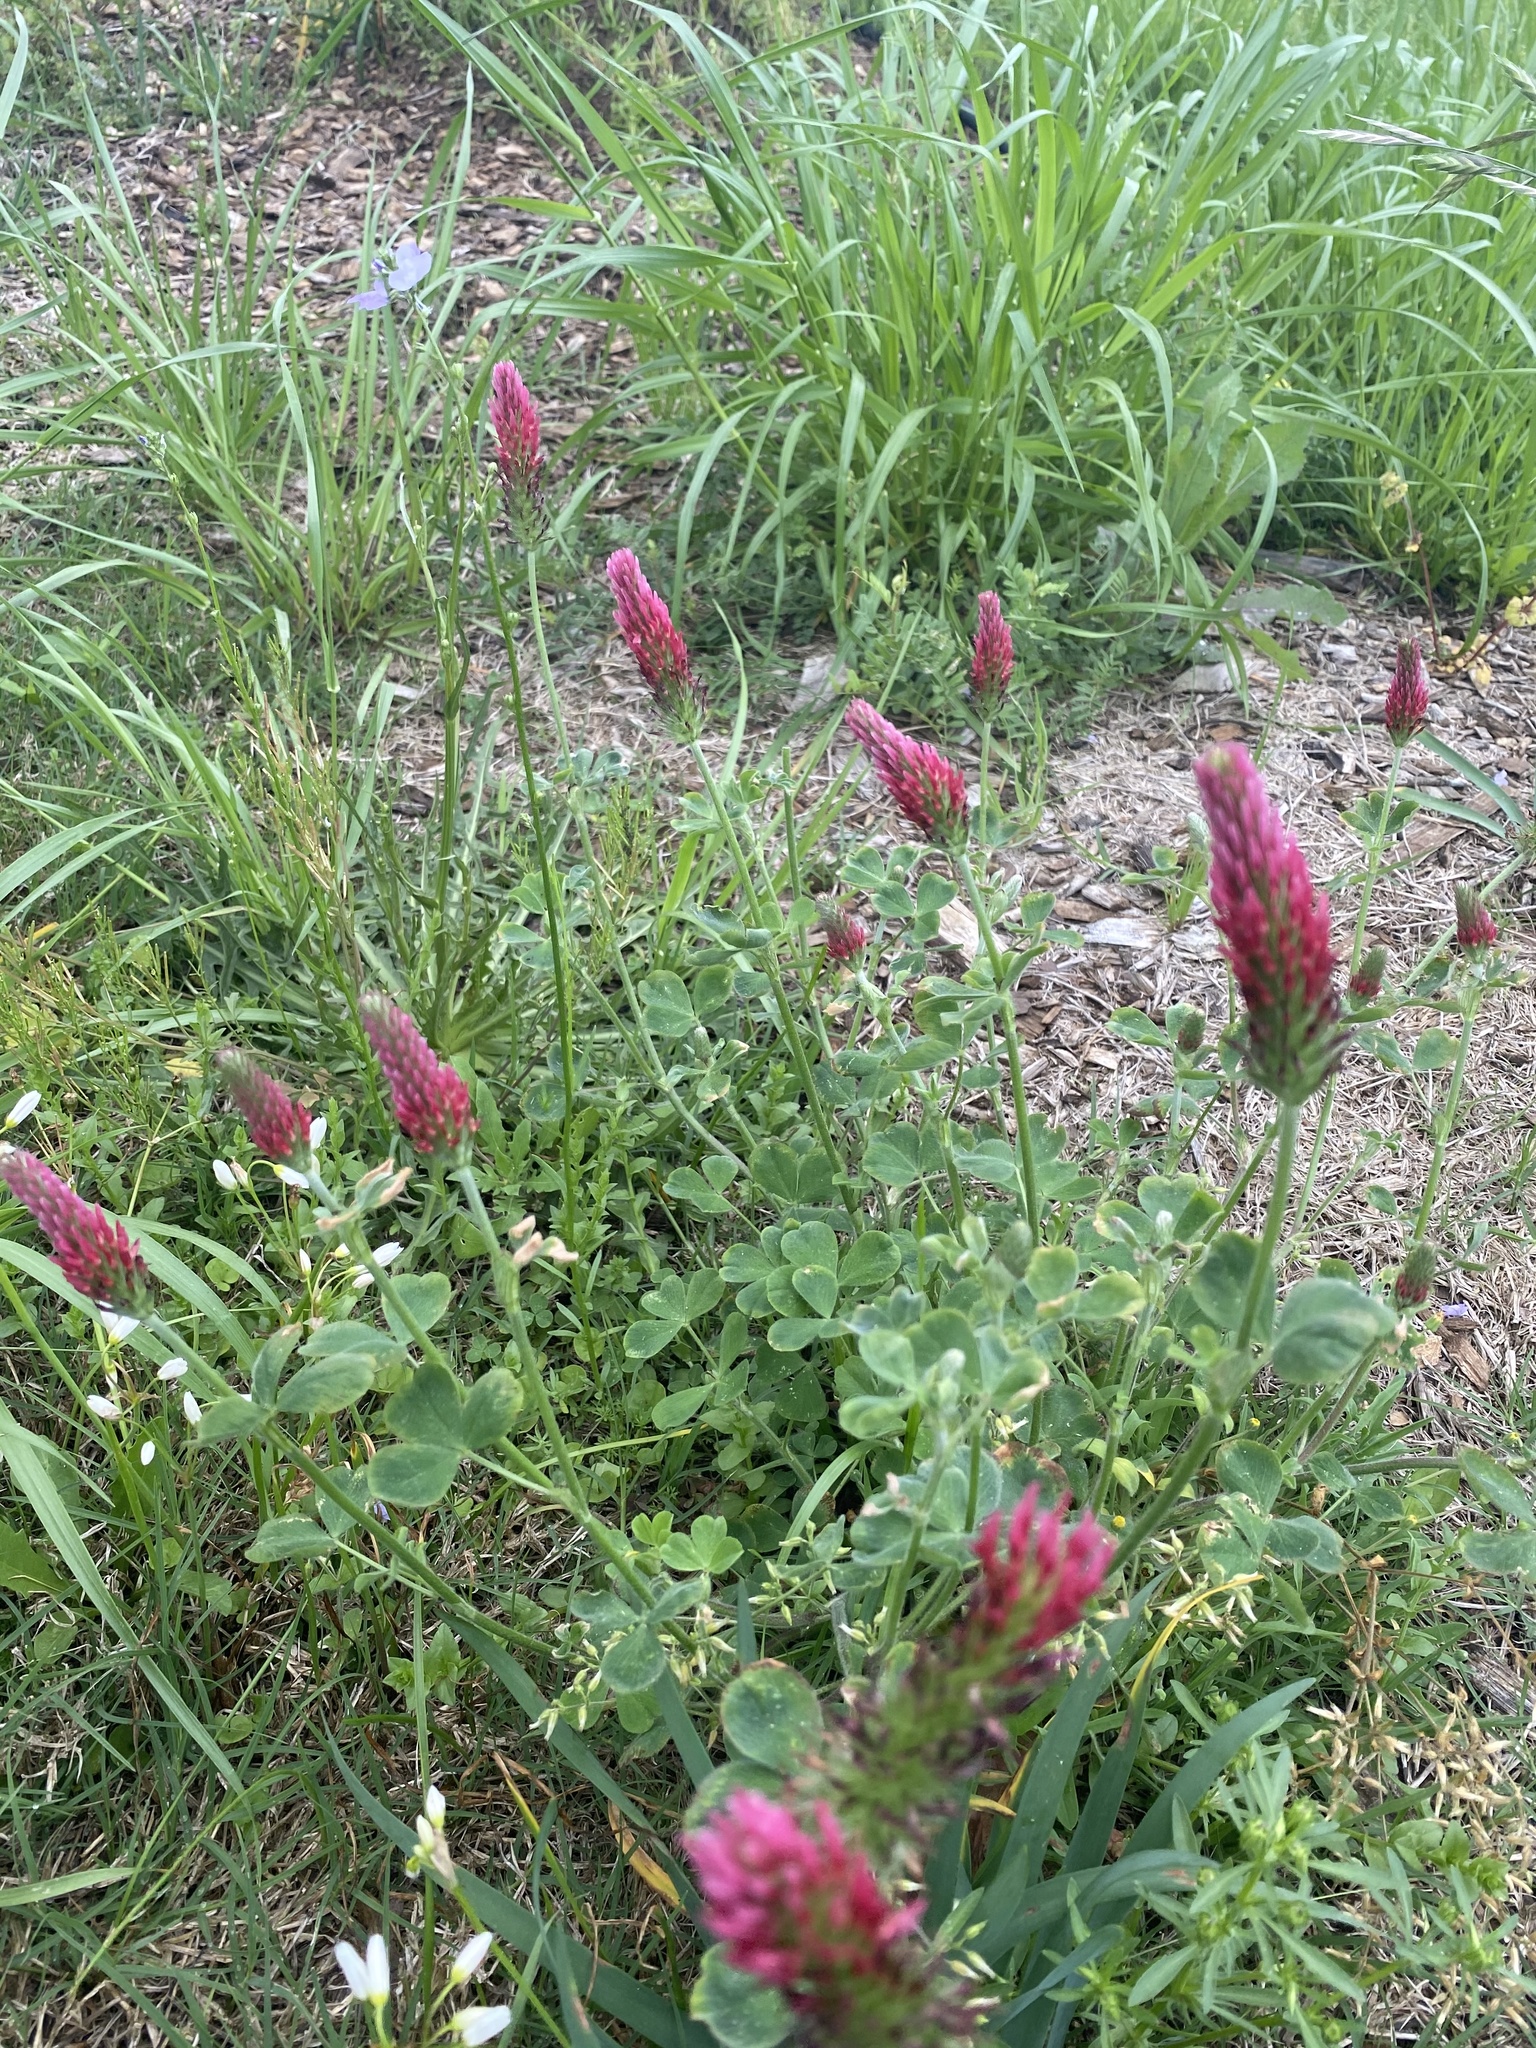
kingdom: Plantae
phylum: Tracheophyta
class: Magnoliopsida
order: Fabales
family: Fabaceae
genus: Trifolium
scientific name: Trifolium incarnatum
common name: Crimson clover
